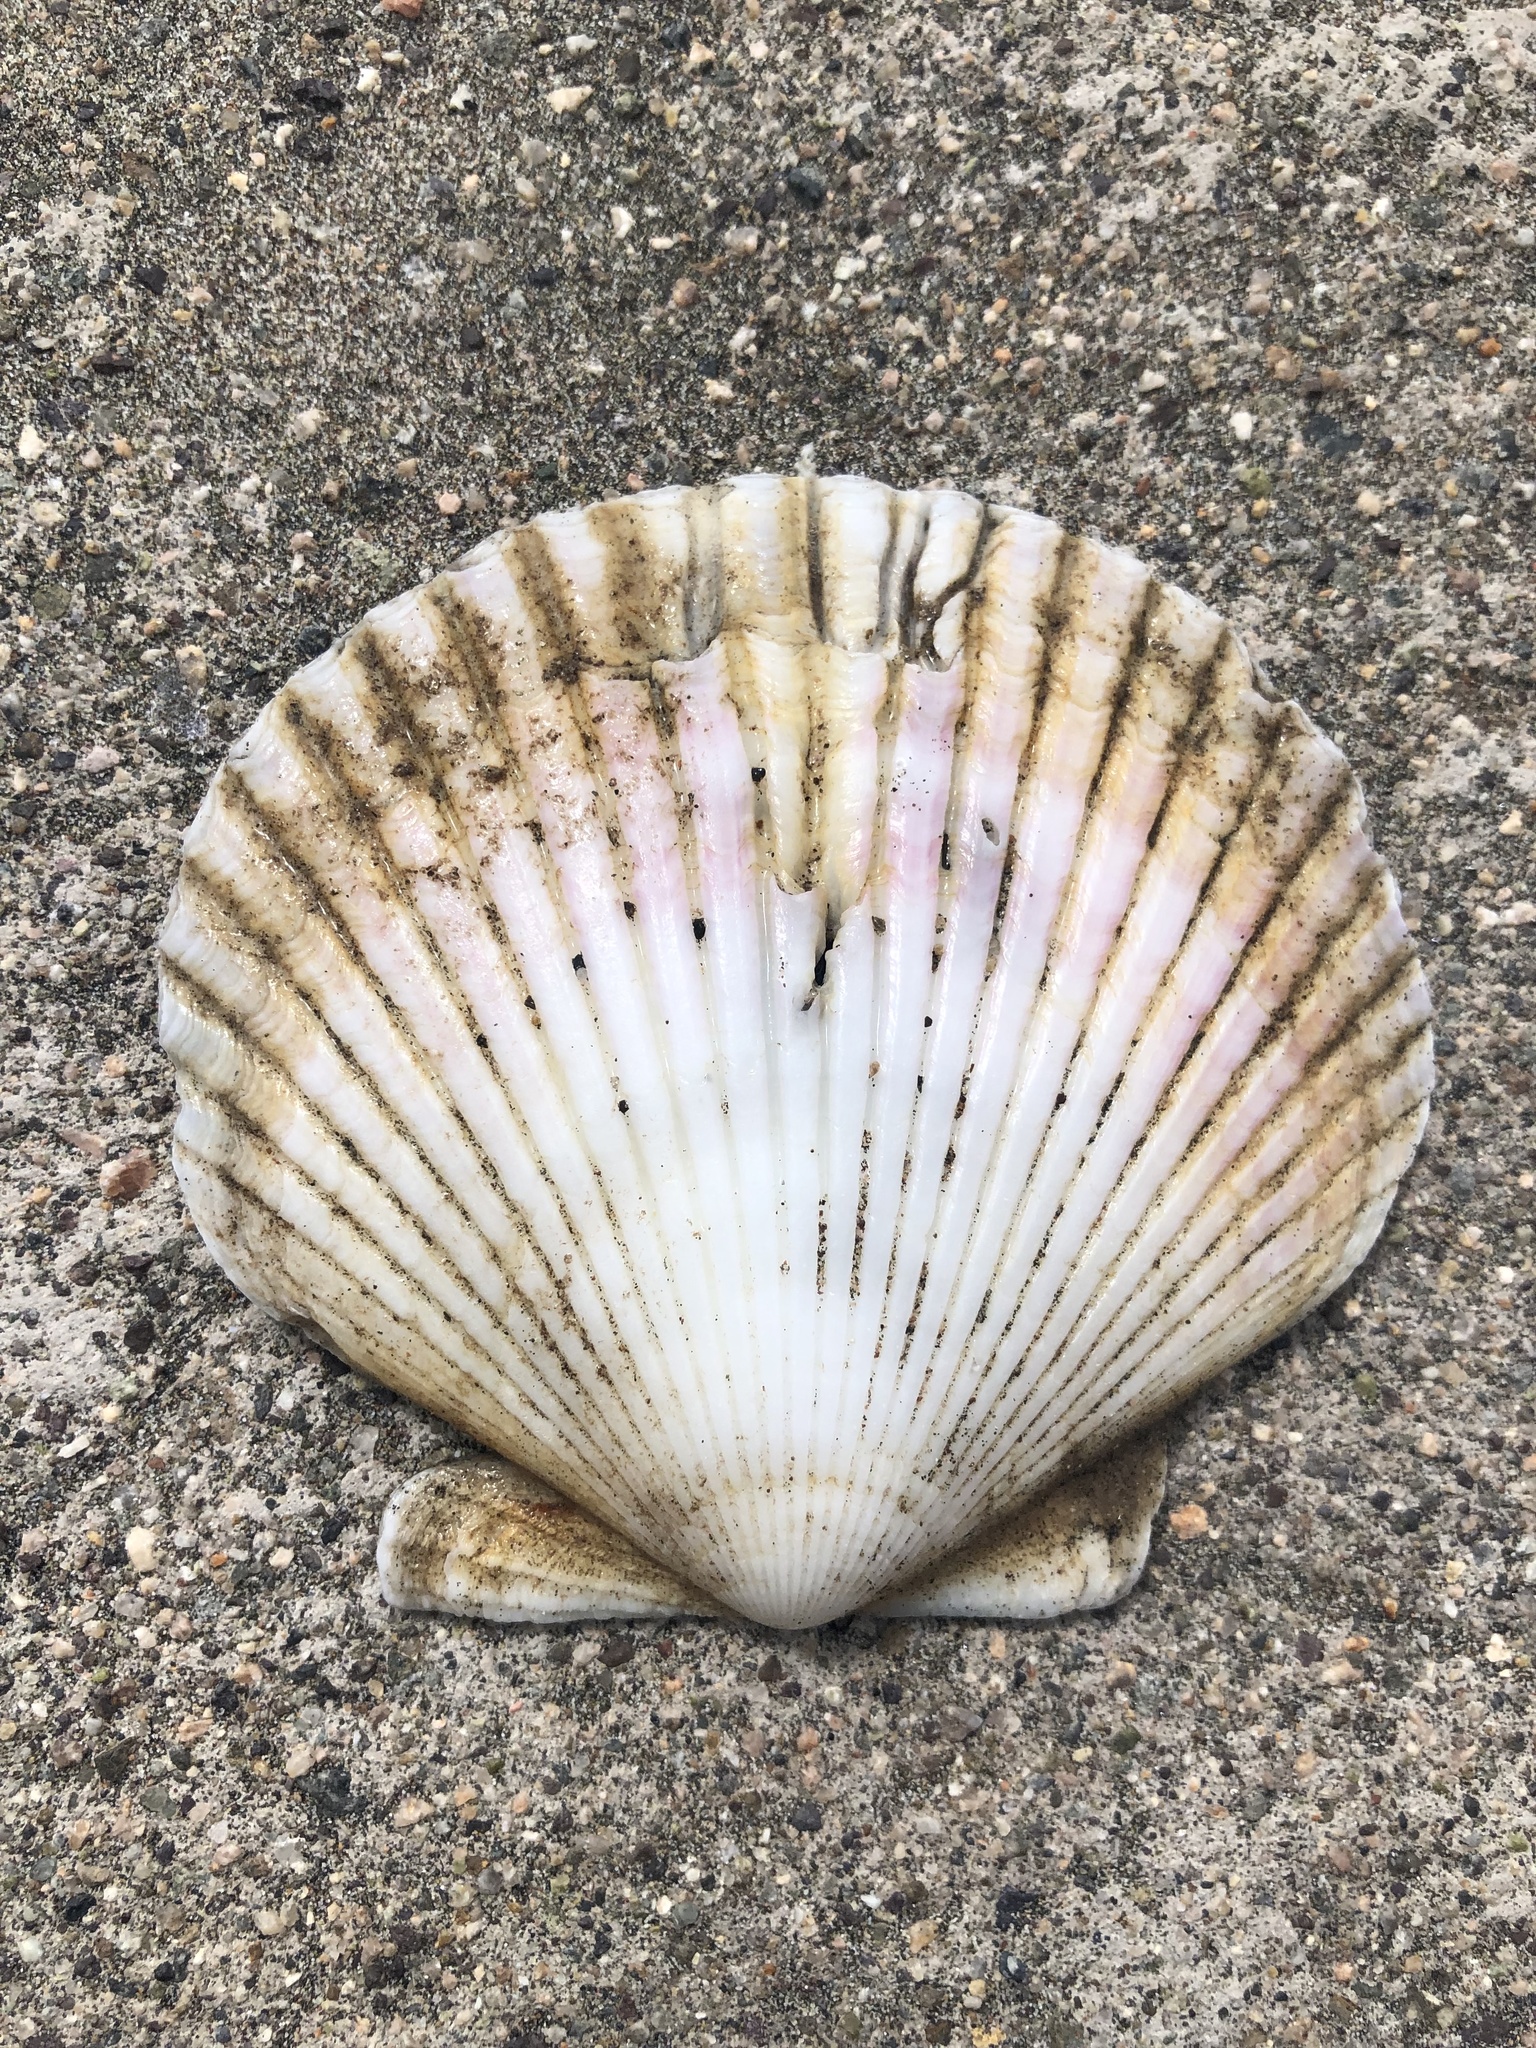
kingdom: Animalia
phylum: Mollusca
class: Bivalvia
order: Pectinida
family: Pectinidae
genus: Argopecten
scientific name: Argopecten purpuratus
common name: Peruvian scallop
